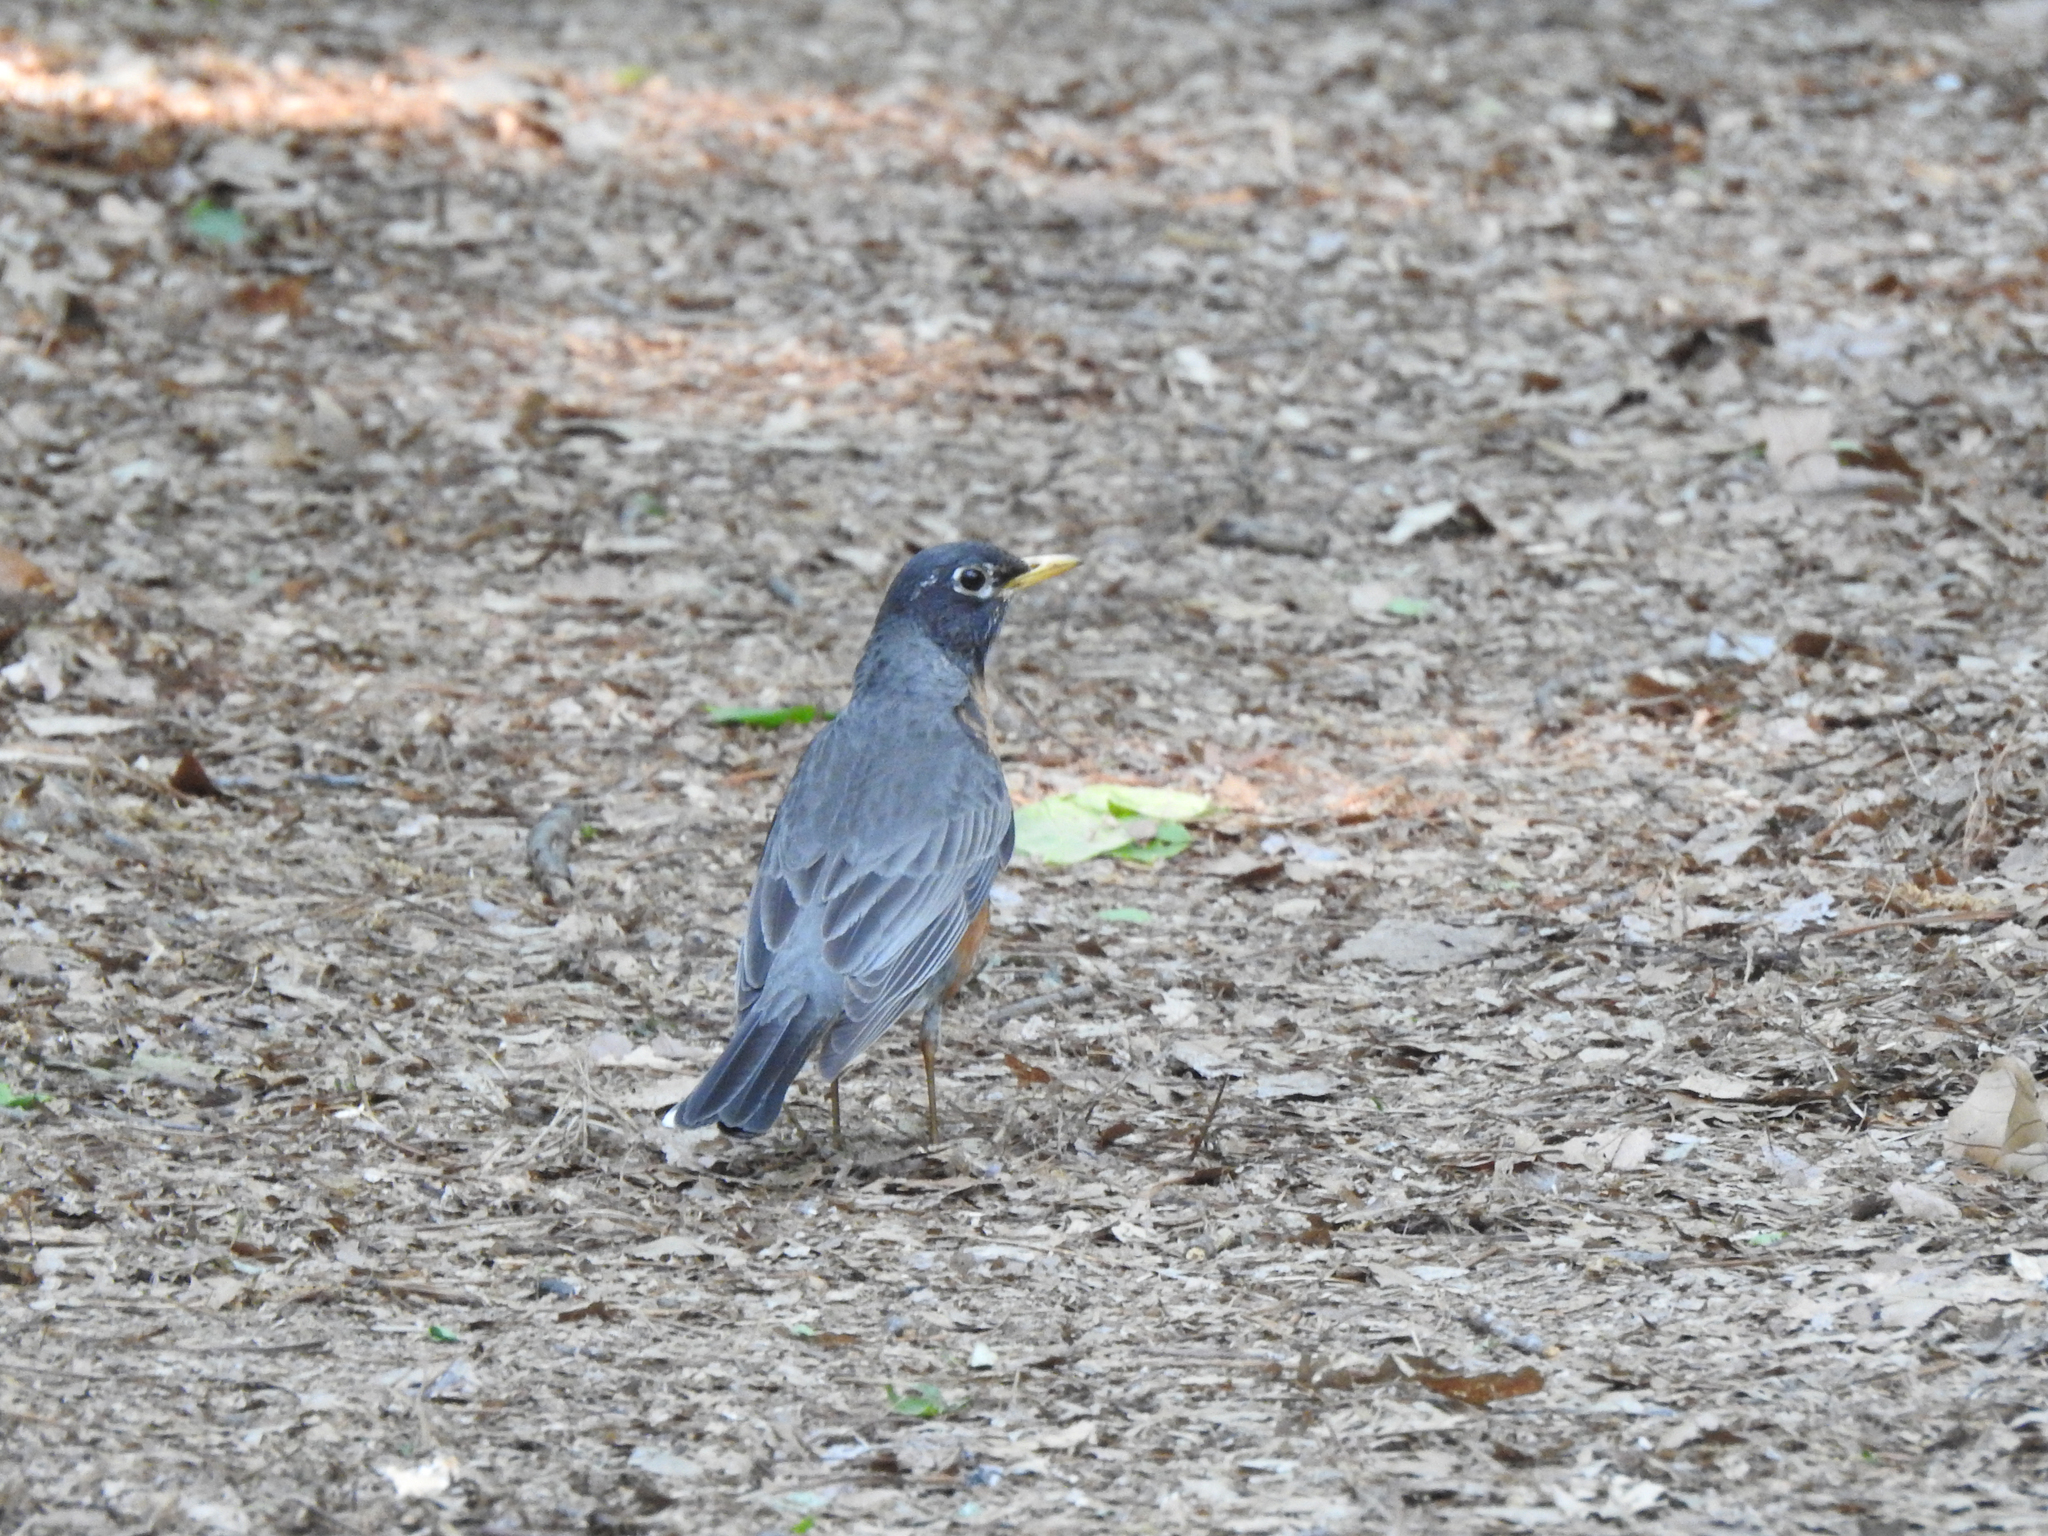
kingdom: Animalia
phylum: Chordata
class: Aves
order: Passeriformes
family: Turdidae
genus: Turdus
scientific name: Turdus migratorius
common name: American robin
